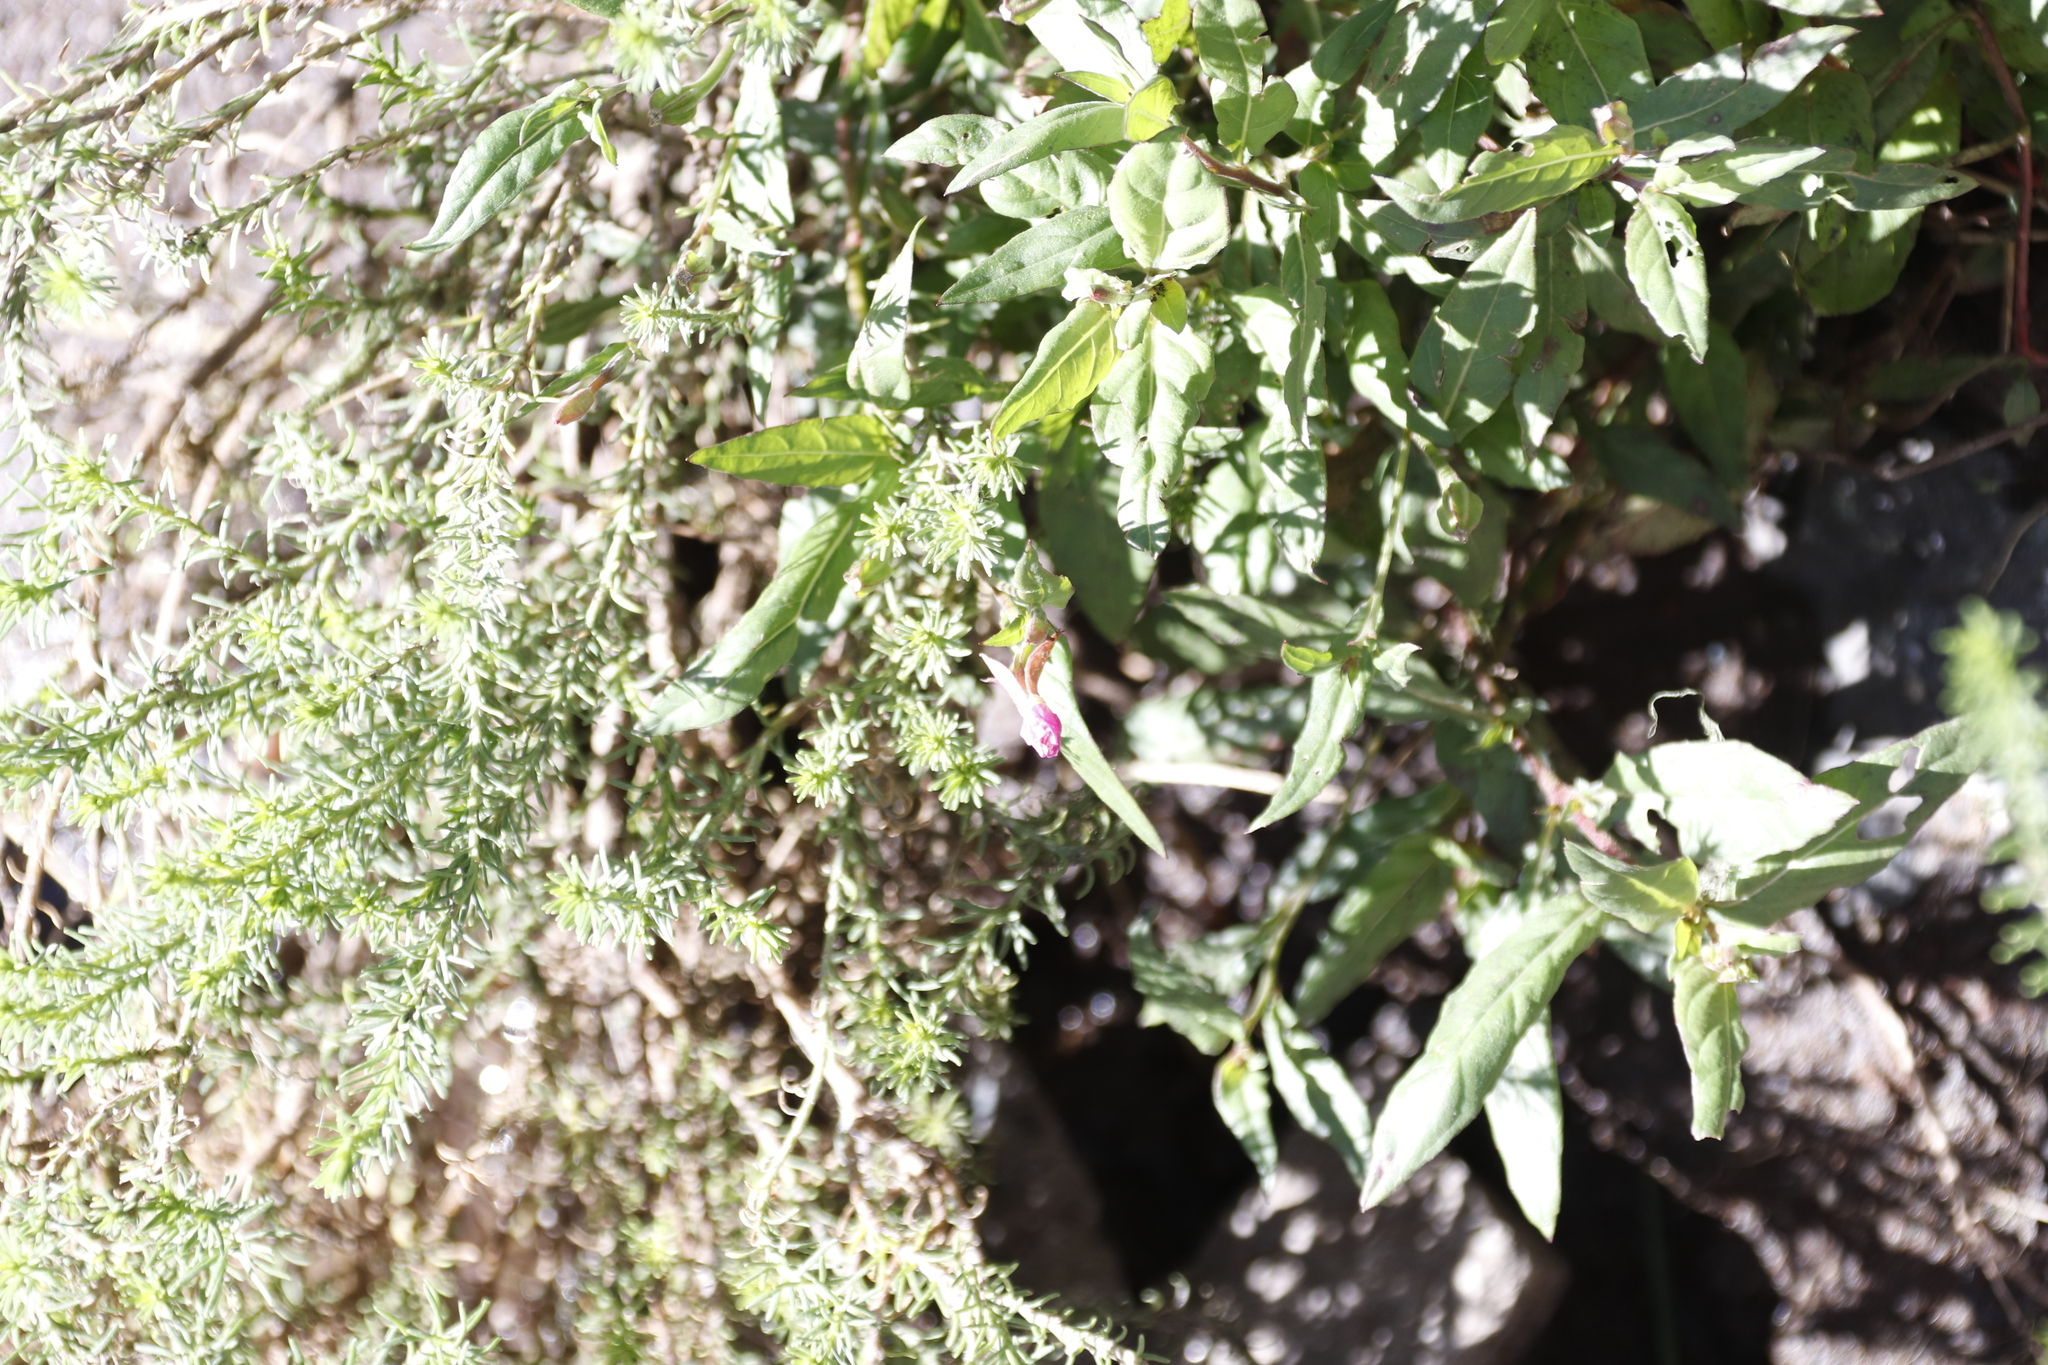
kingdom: Plantae
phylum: Tracheophyta
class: Magnoliopsida
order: Myrtales
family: Onagraceae
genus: Oenothera
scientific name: Oenothera rosea
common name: Rosy evening-primrose
